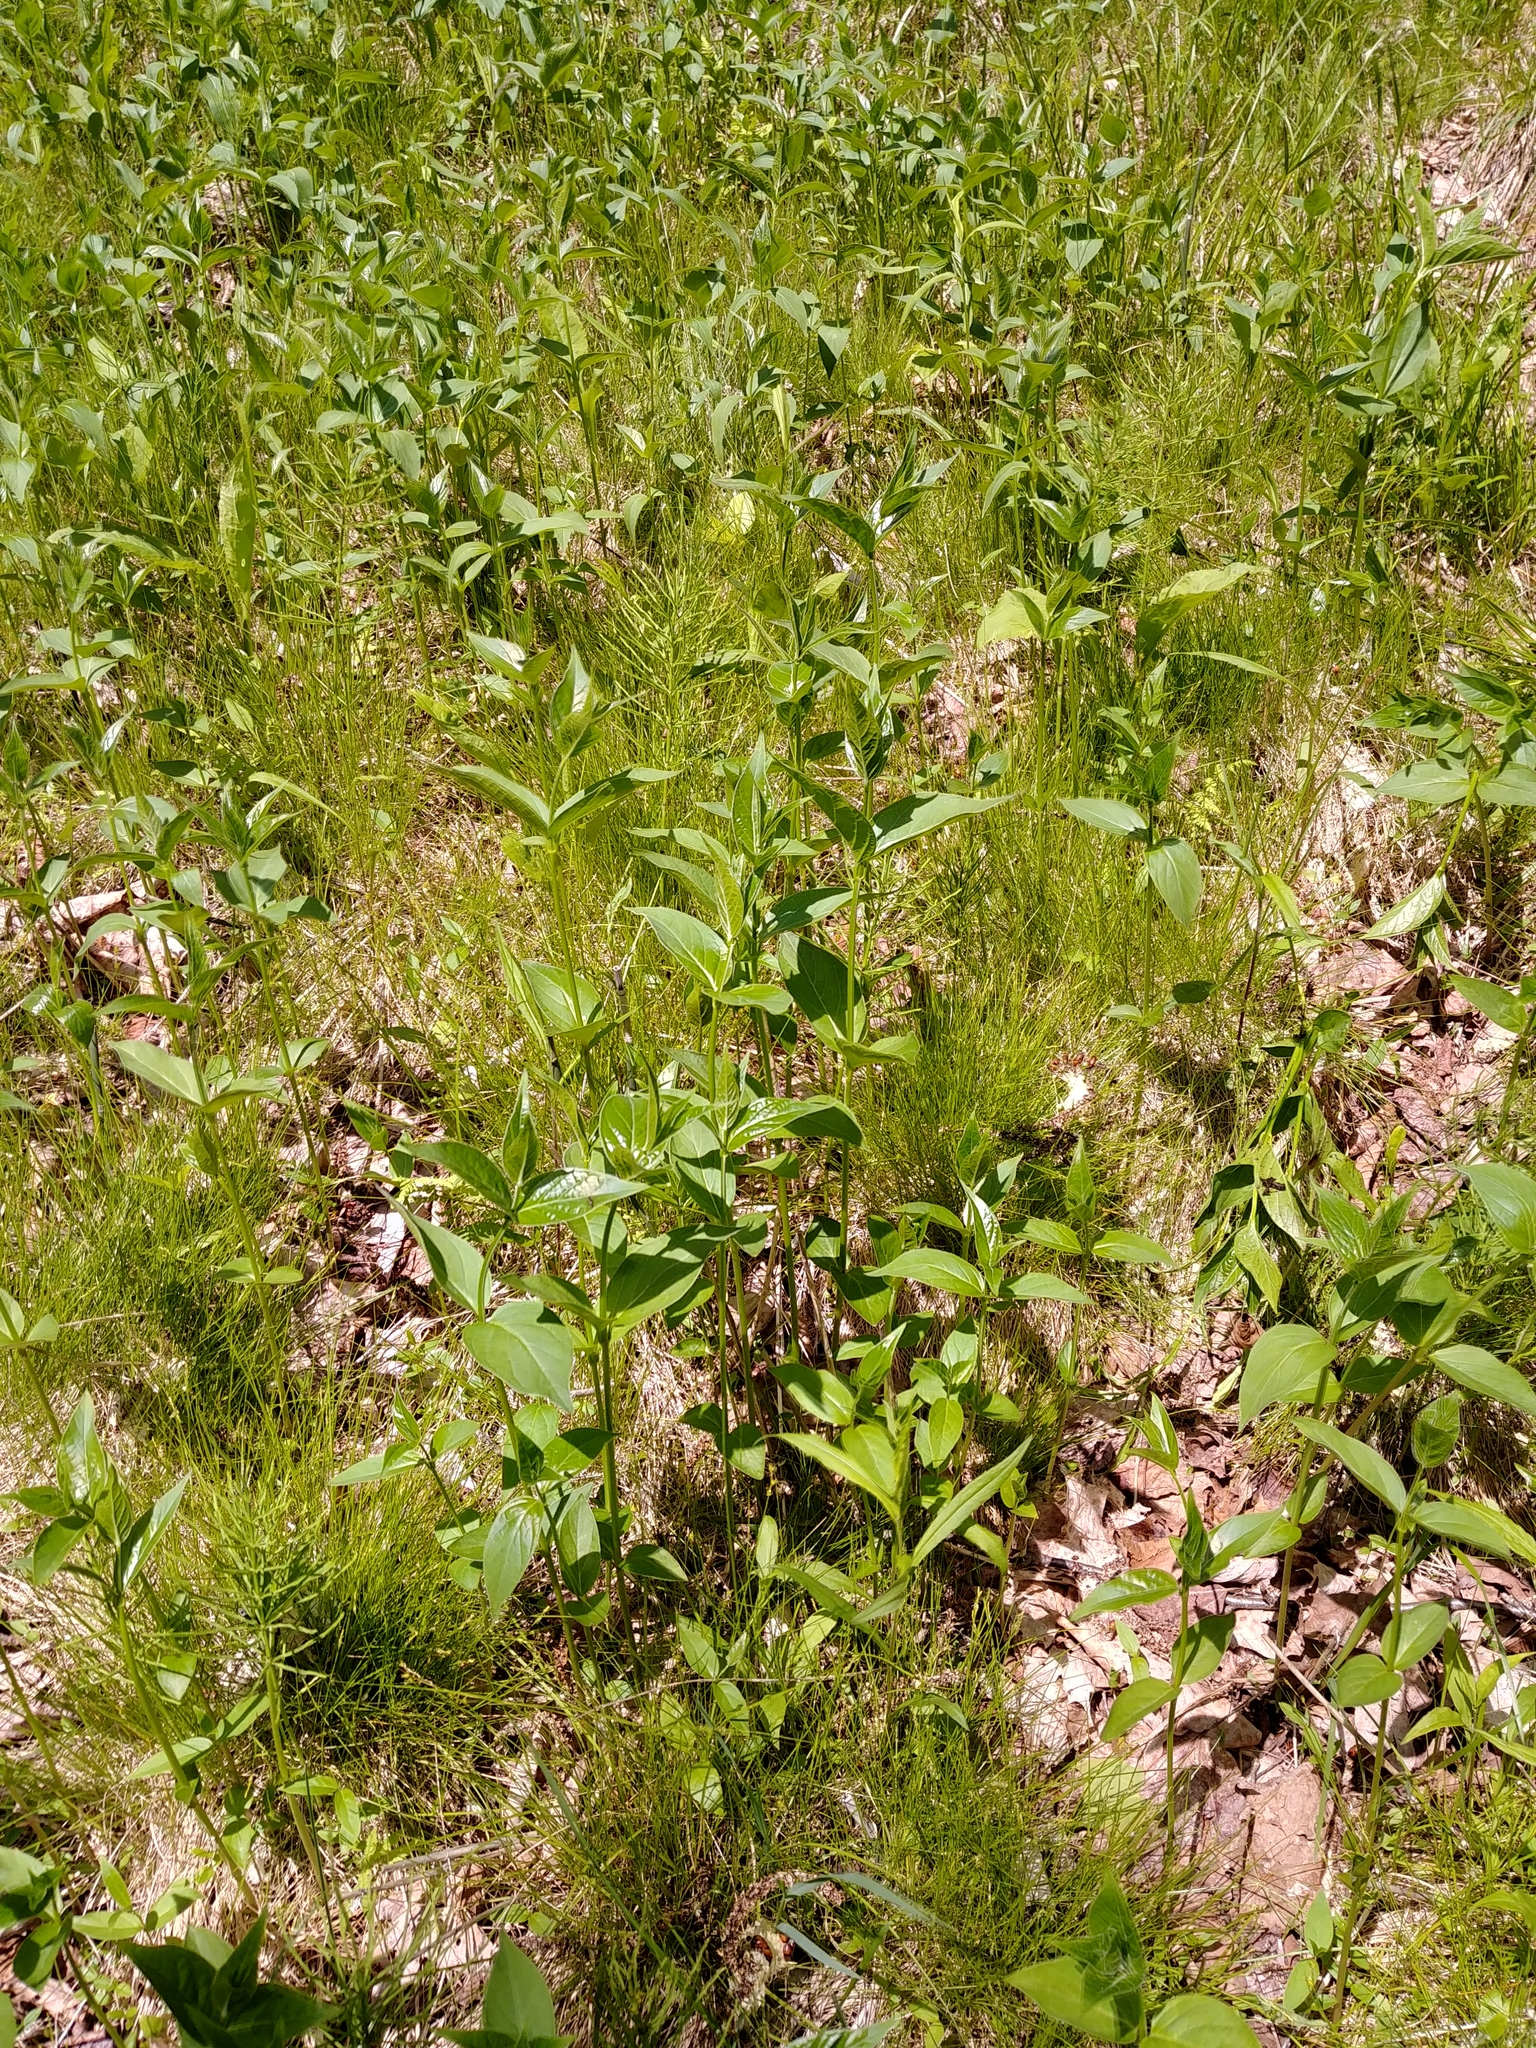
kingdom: Plantae
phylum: Tracheophyta
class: Magnoliopsida
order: Gentianales
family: Apocynaceae
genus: Vincetoxicum
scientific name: Vincetoxicum rossicum
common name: Dog-strangling vine
